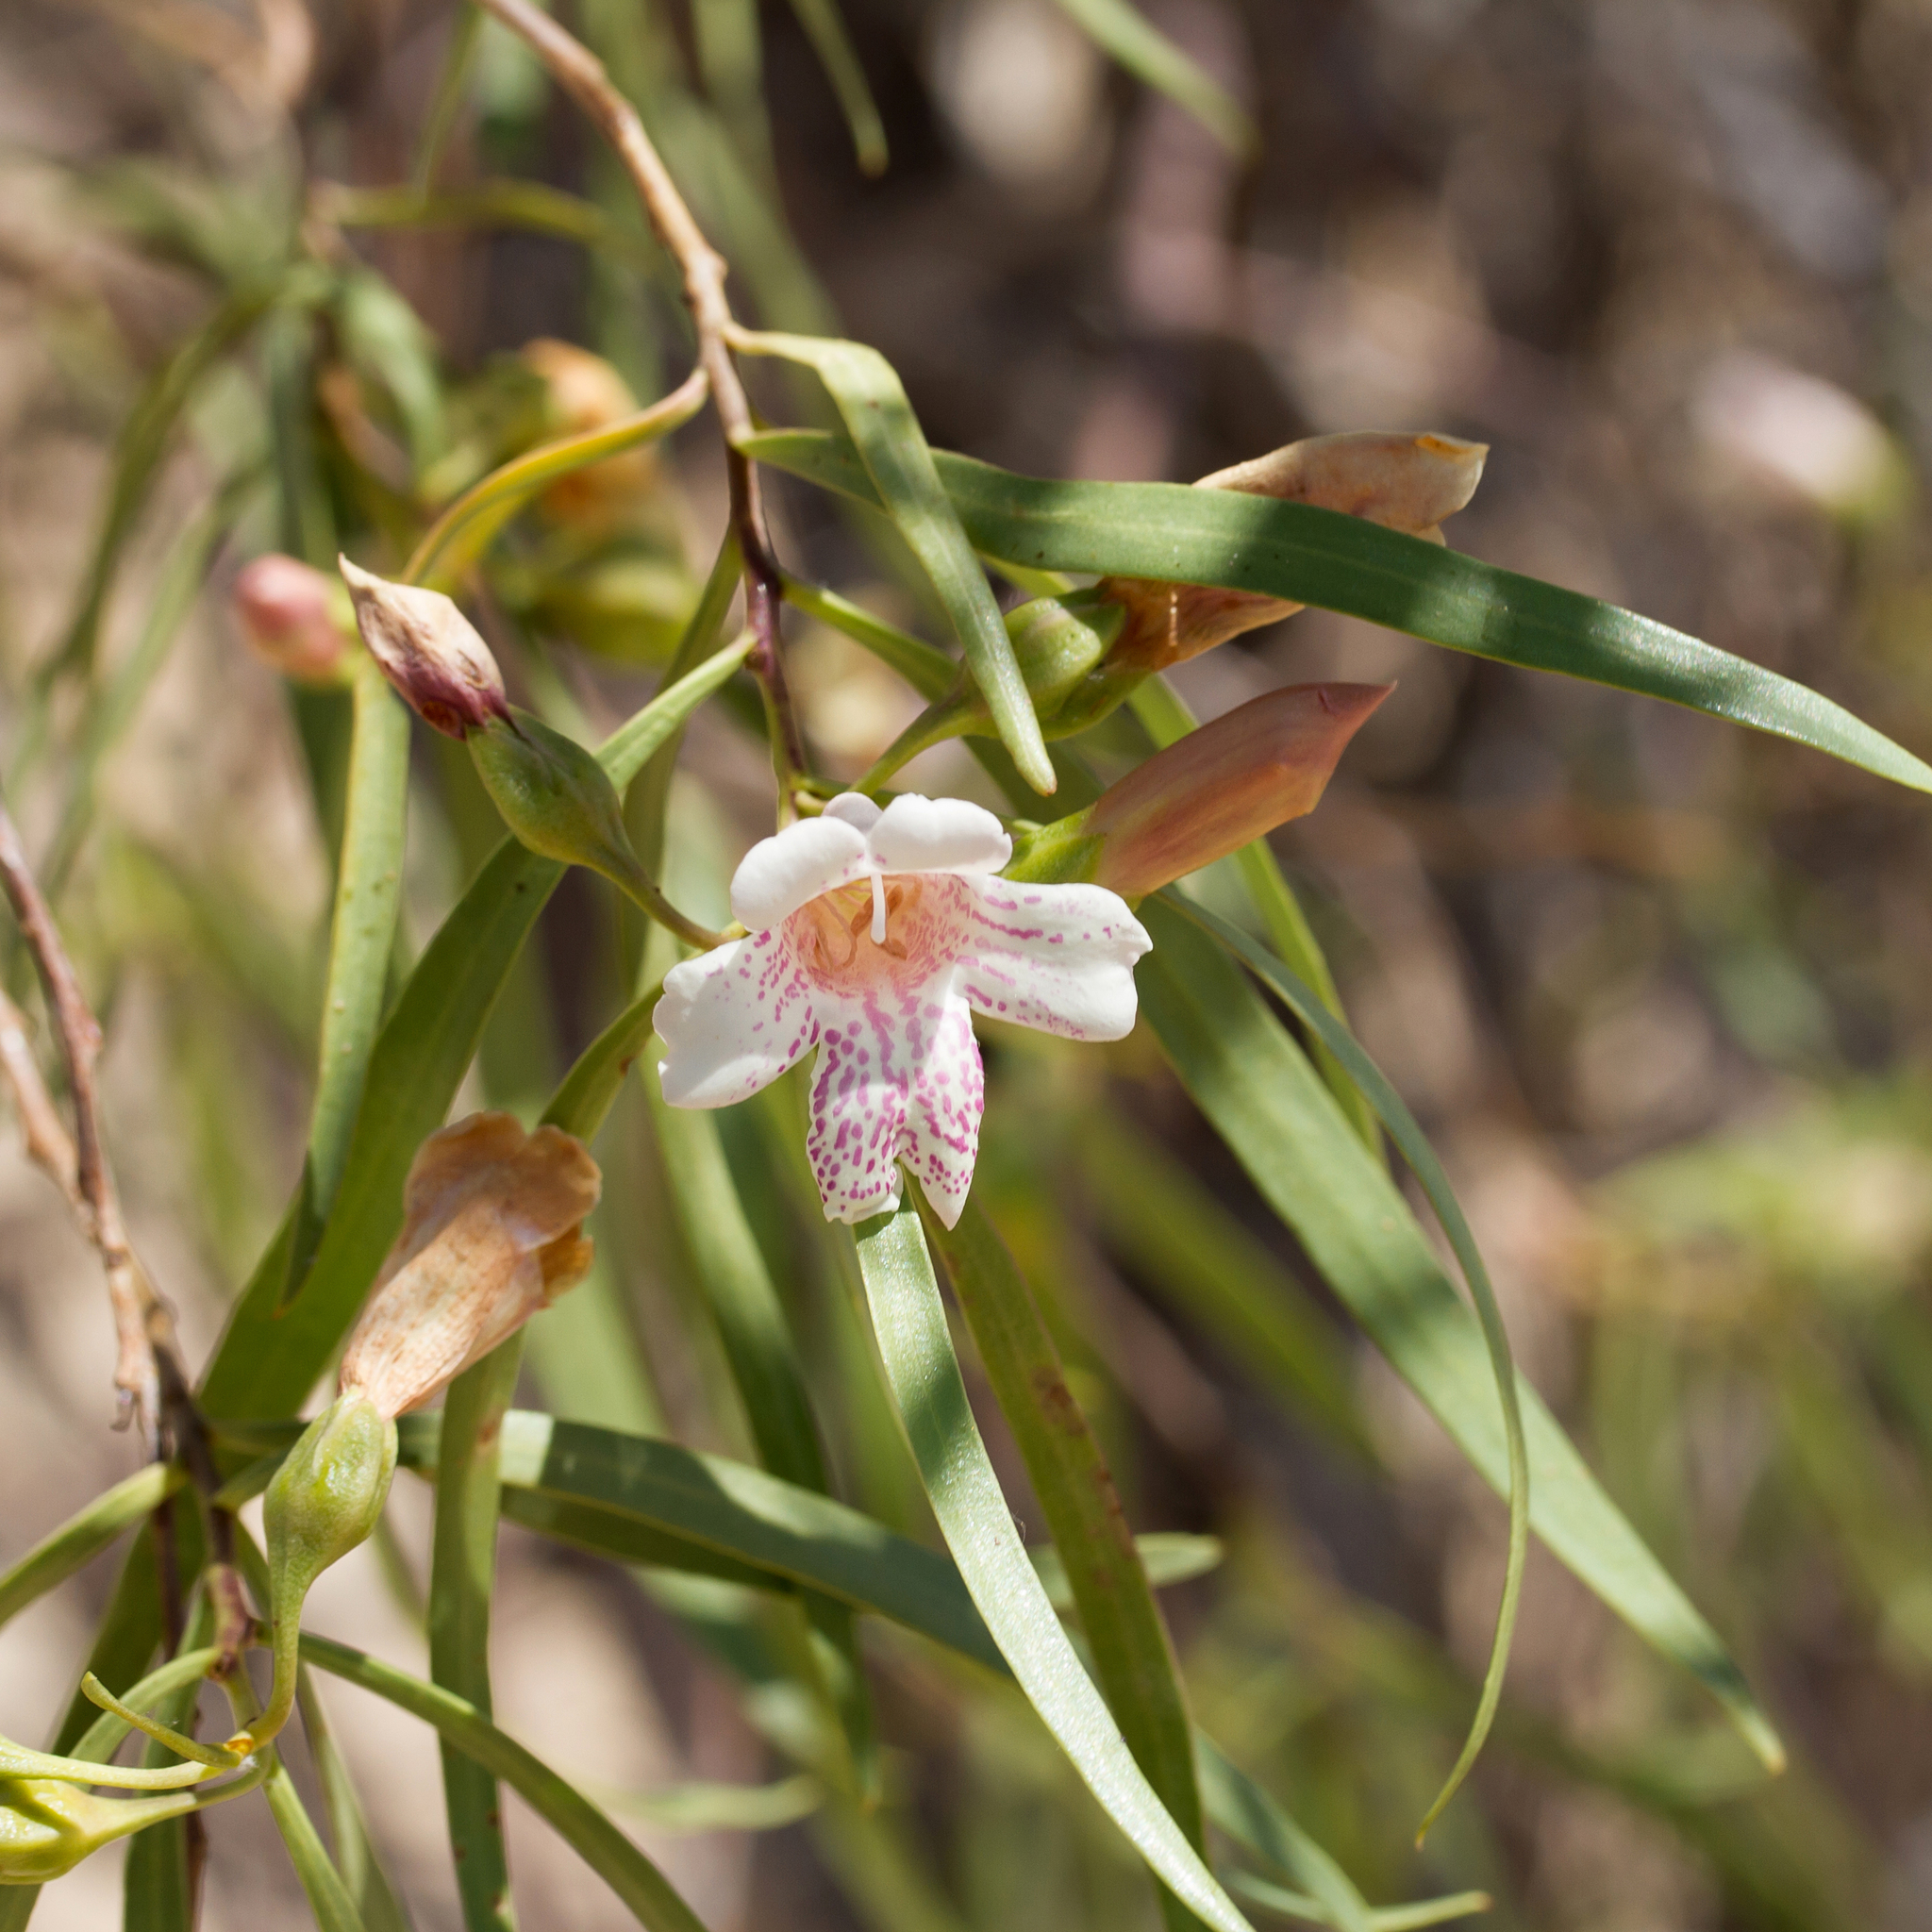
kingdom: Plantae
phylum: Tracheophyta
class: Magnoliopsida
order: Lamiales
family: Scrophulariaceae
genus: Eremophila
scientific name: Eremophila bignoniiflora
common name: Bignonia emu-bush
